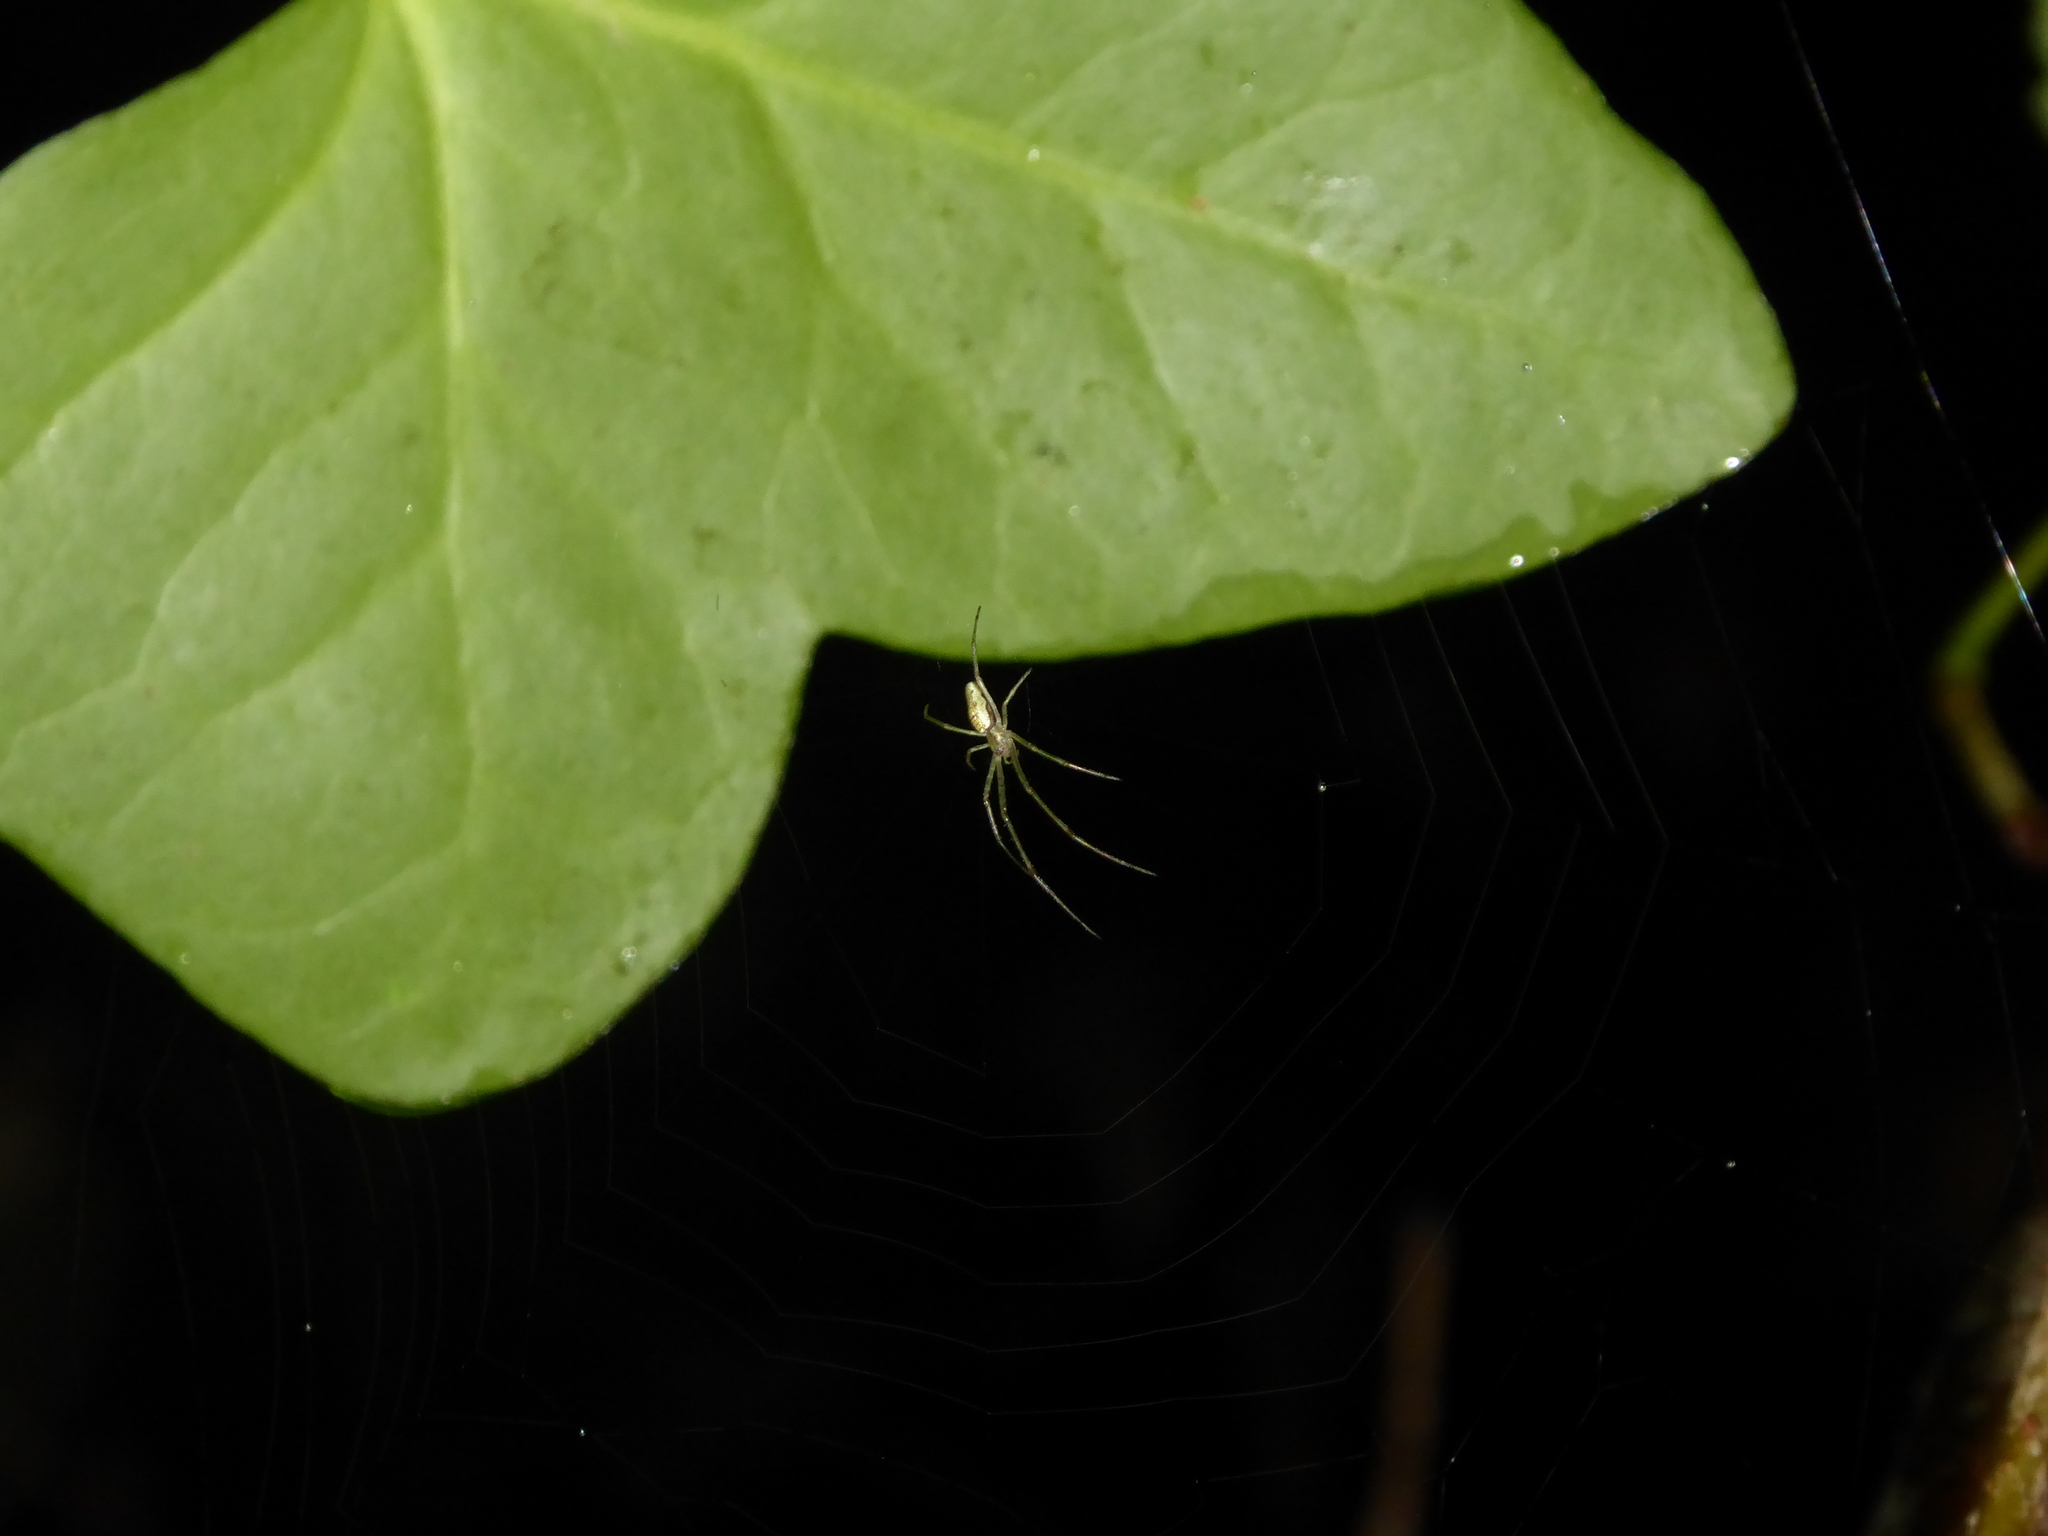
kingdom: Animalia
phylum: Arthropoda
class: Arachnida
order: Araneae
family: Tetragnathidae
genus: Tetragnatha
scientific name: Tetragnatha
